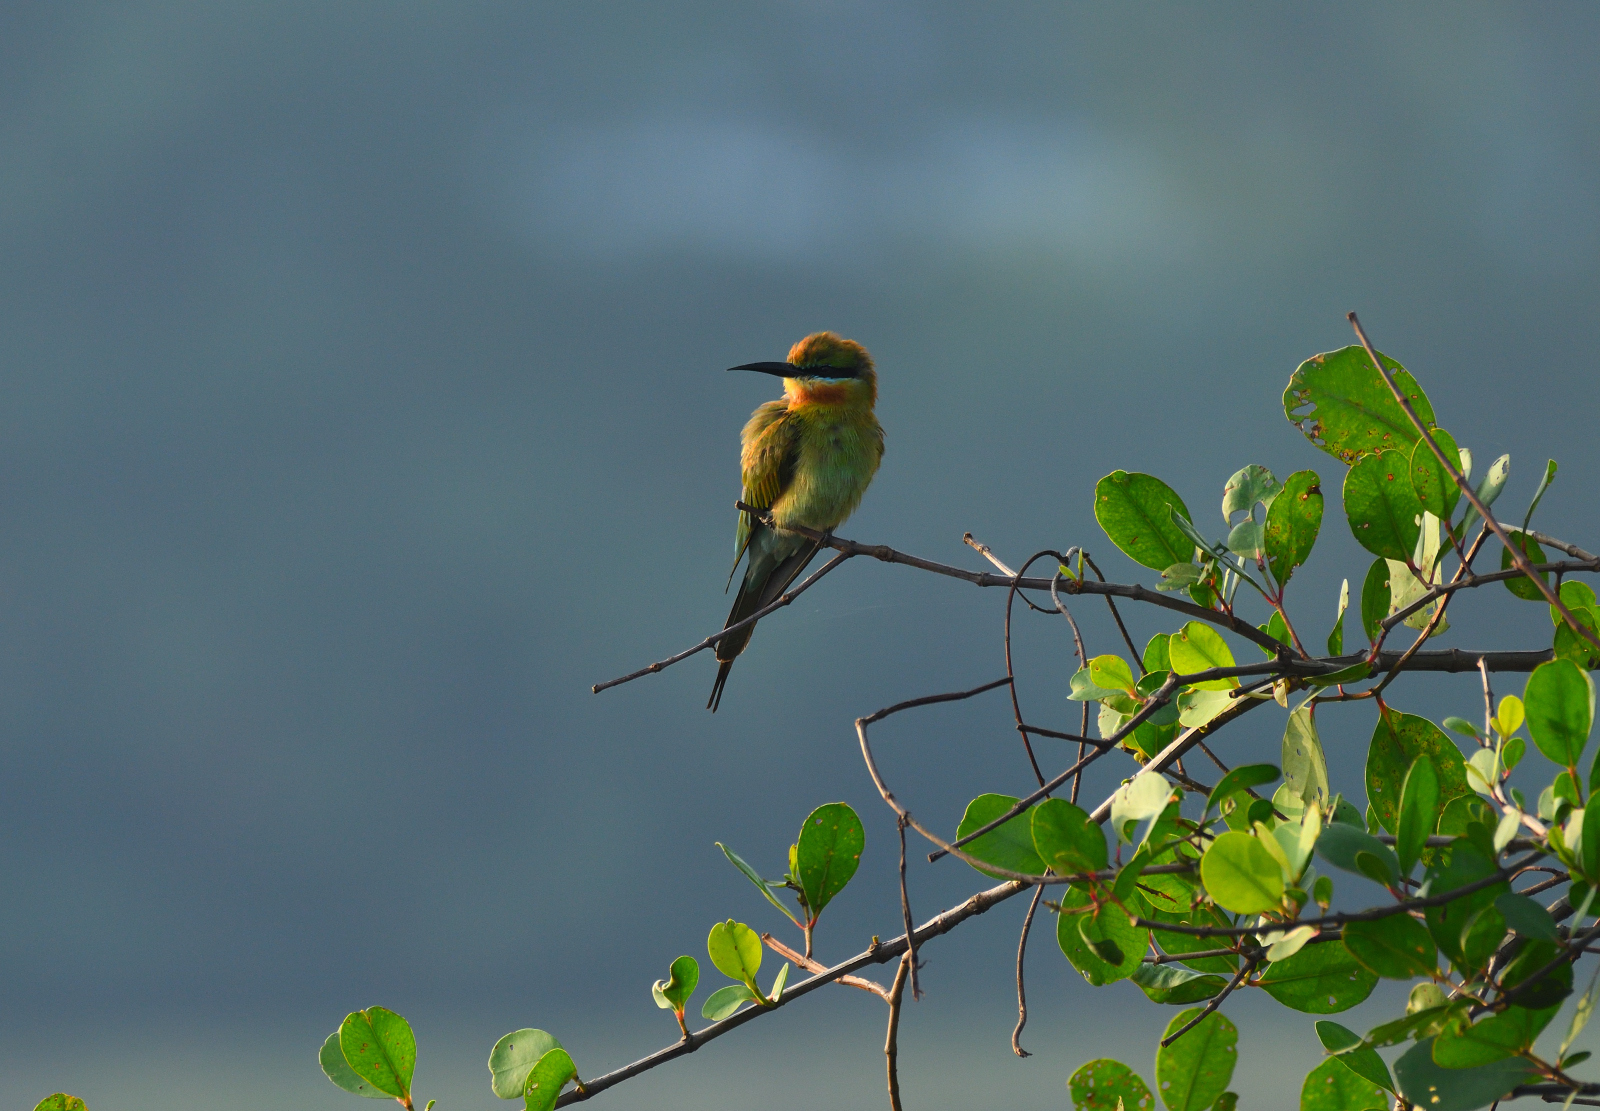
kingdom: Animalia
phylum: Chordata
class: Aves
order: Coraciiformes
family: Meropidae
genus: Merops
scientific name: Merops philippinus
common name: Blue-tailed bee-eater
